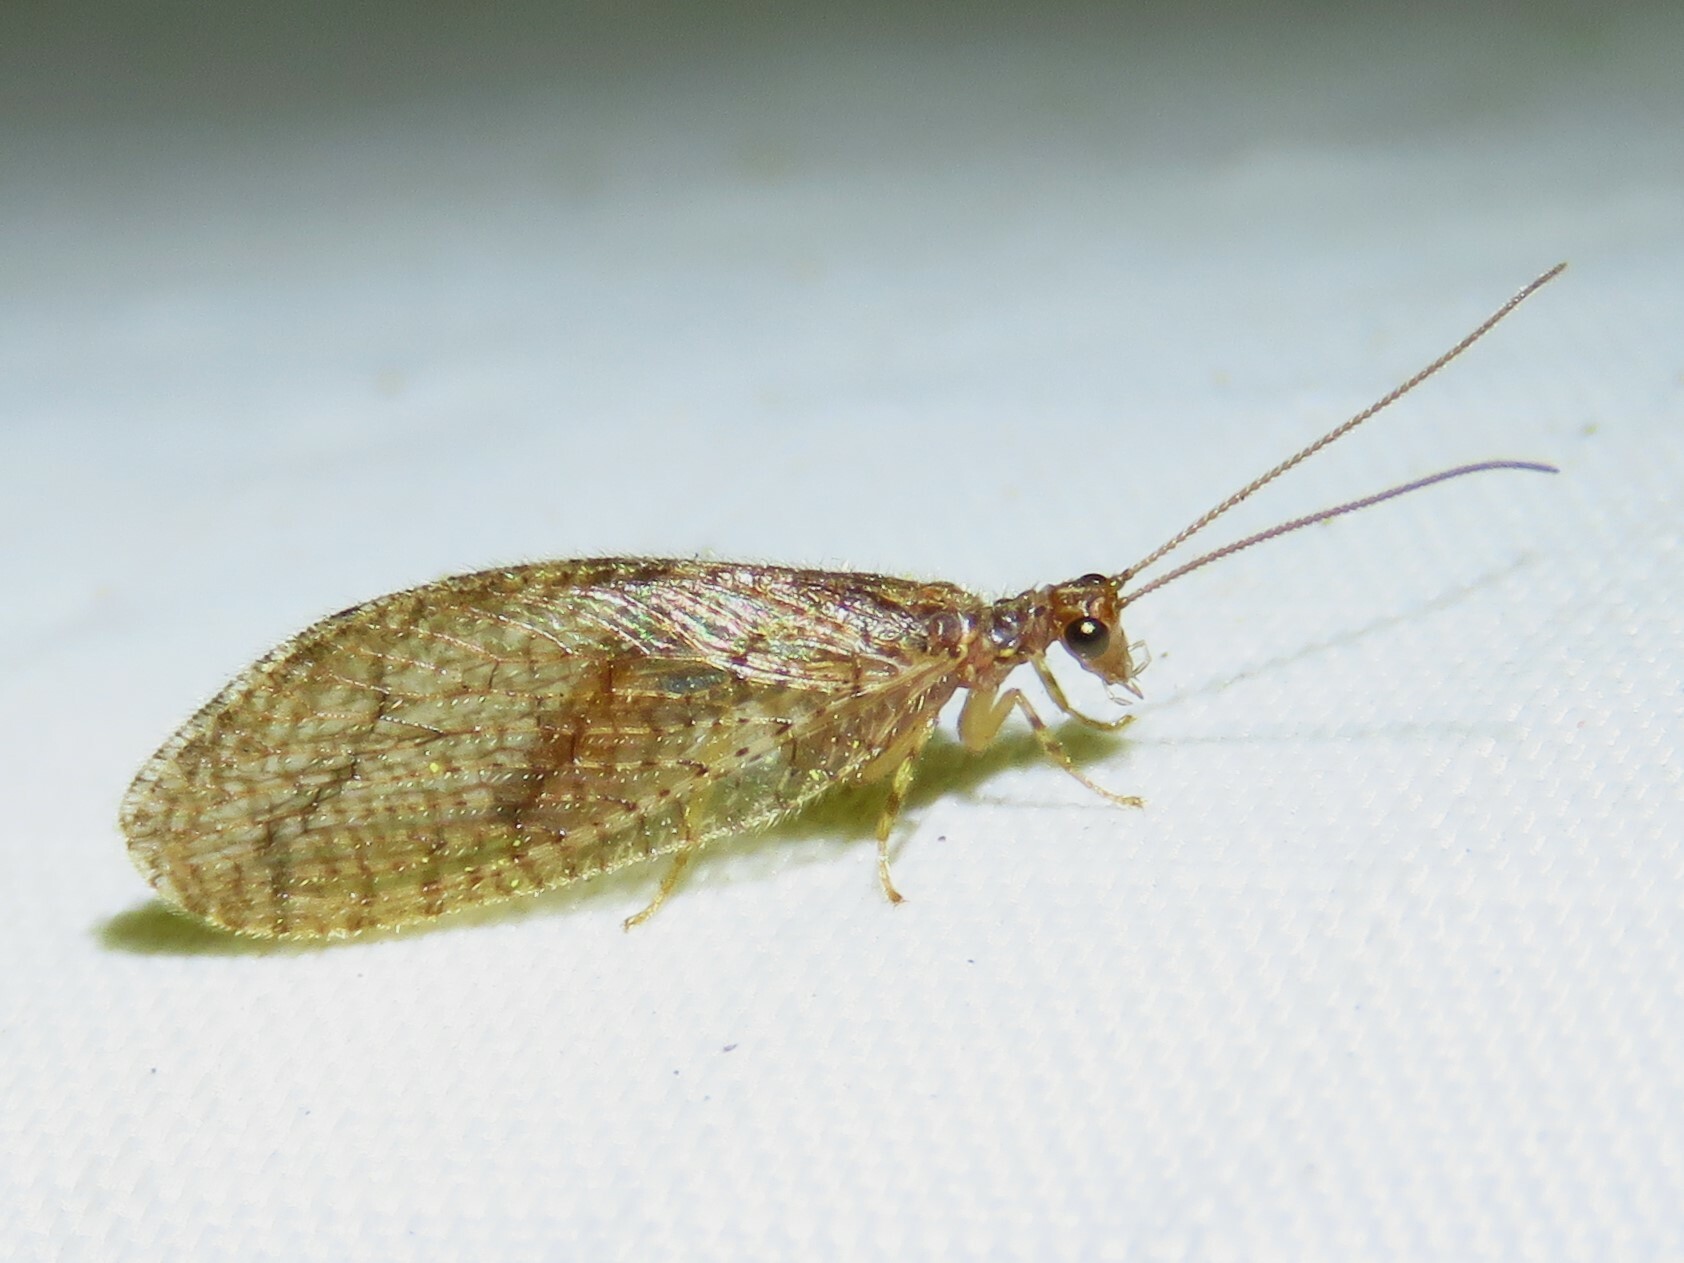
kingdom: Animalia
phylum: Arthropoda
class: Insecta
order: Neuroptera
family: Hemerobiidae
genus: Micromus
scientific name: Micromus posticus
